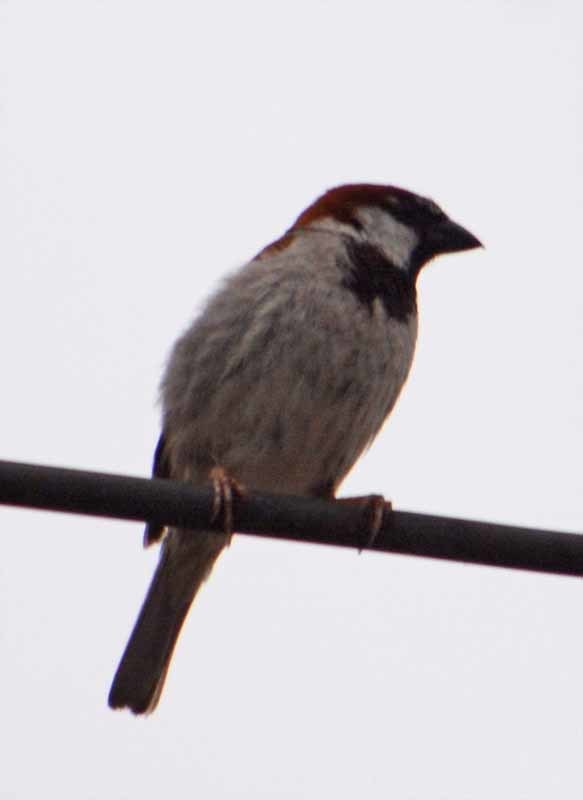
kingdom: Animalia
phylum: Chordata
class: Aves
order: Passeriformes
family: Passeridae
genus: Passer
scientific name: Passer domesticus
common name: House sparrow
